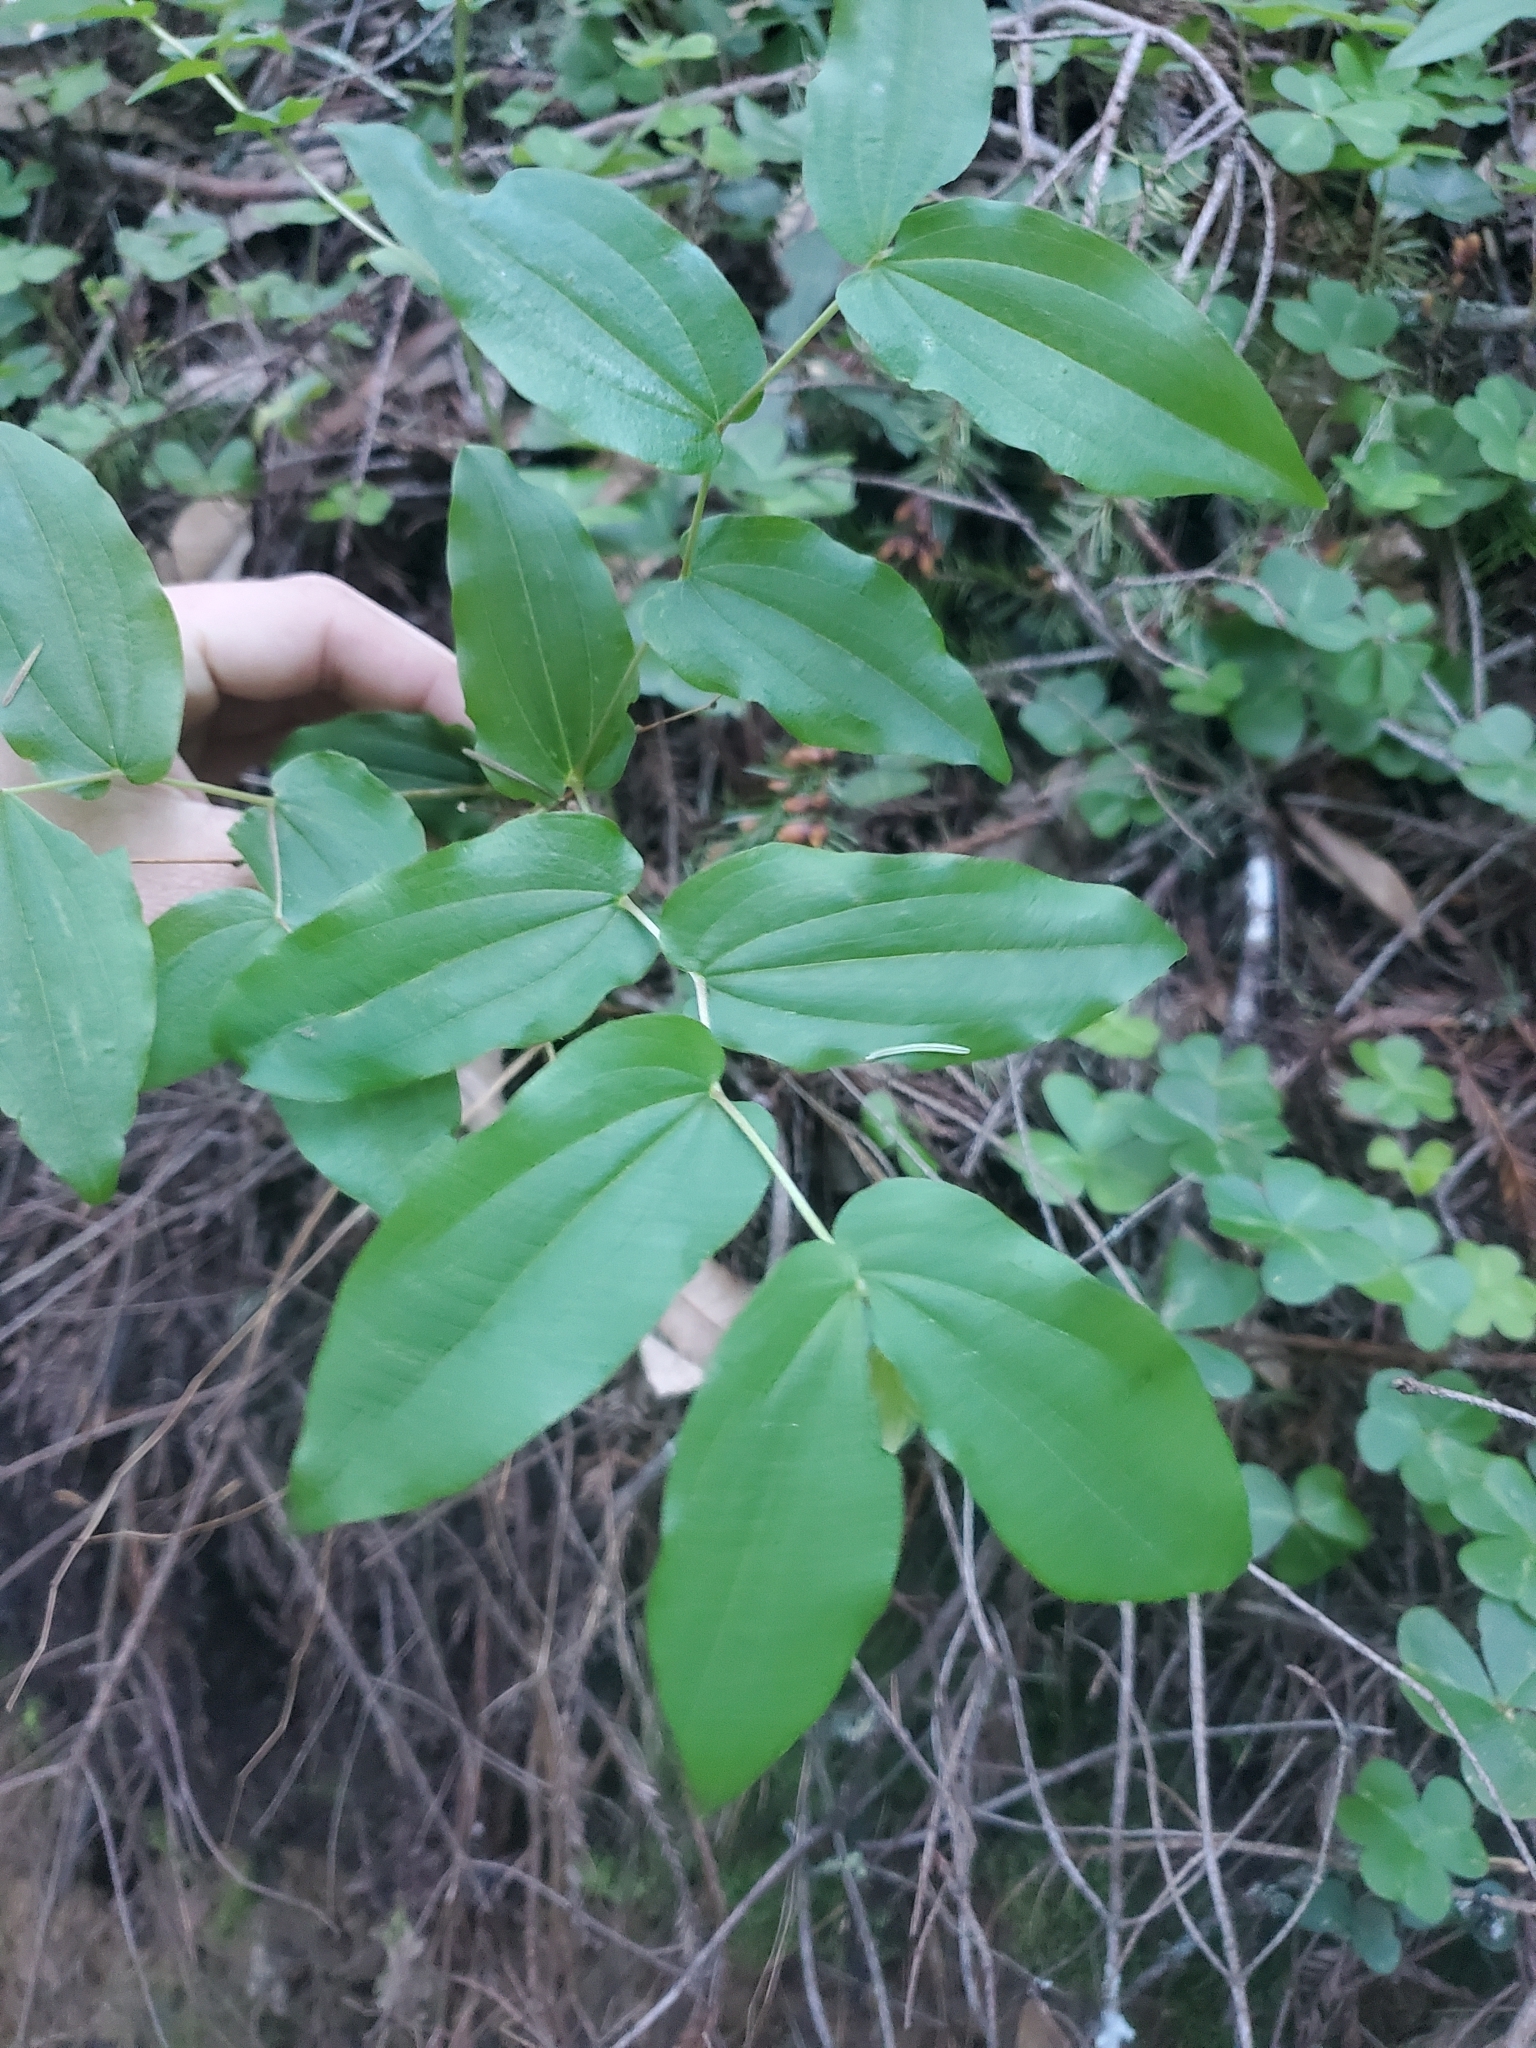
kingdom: Plantae
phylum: Tracheophyta
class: Liliopsida
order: Liliales
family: Liliaceae
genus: Prosartes
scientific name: Prosartes hookeri
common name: Fairy-bells
